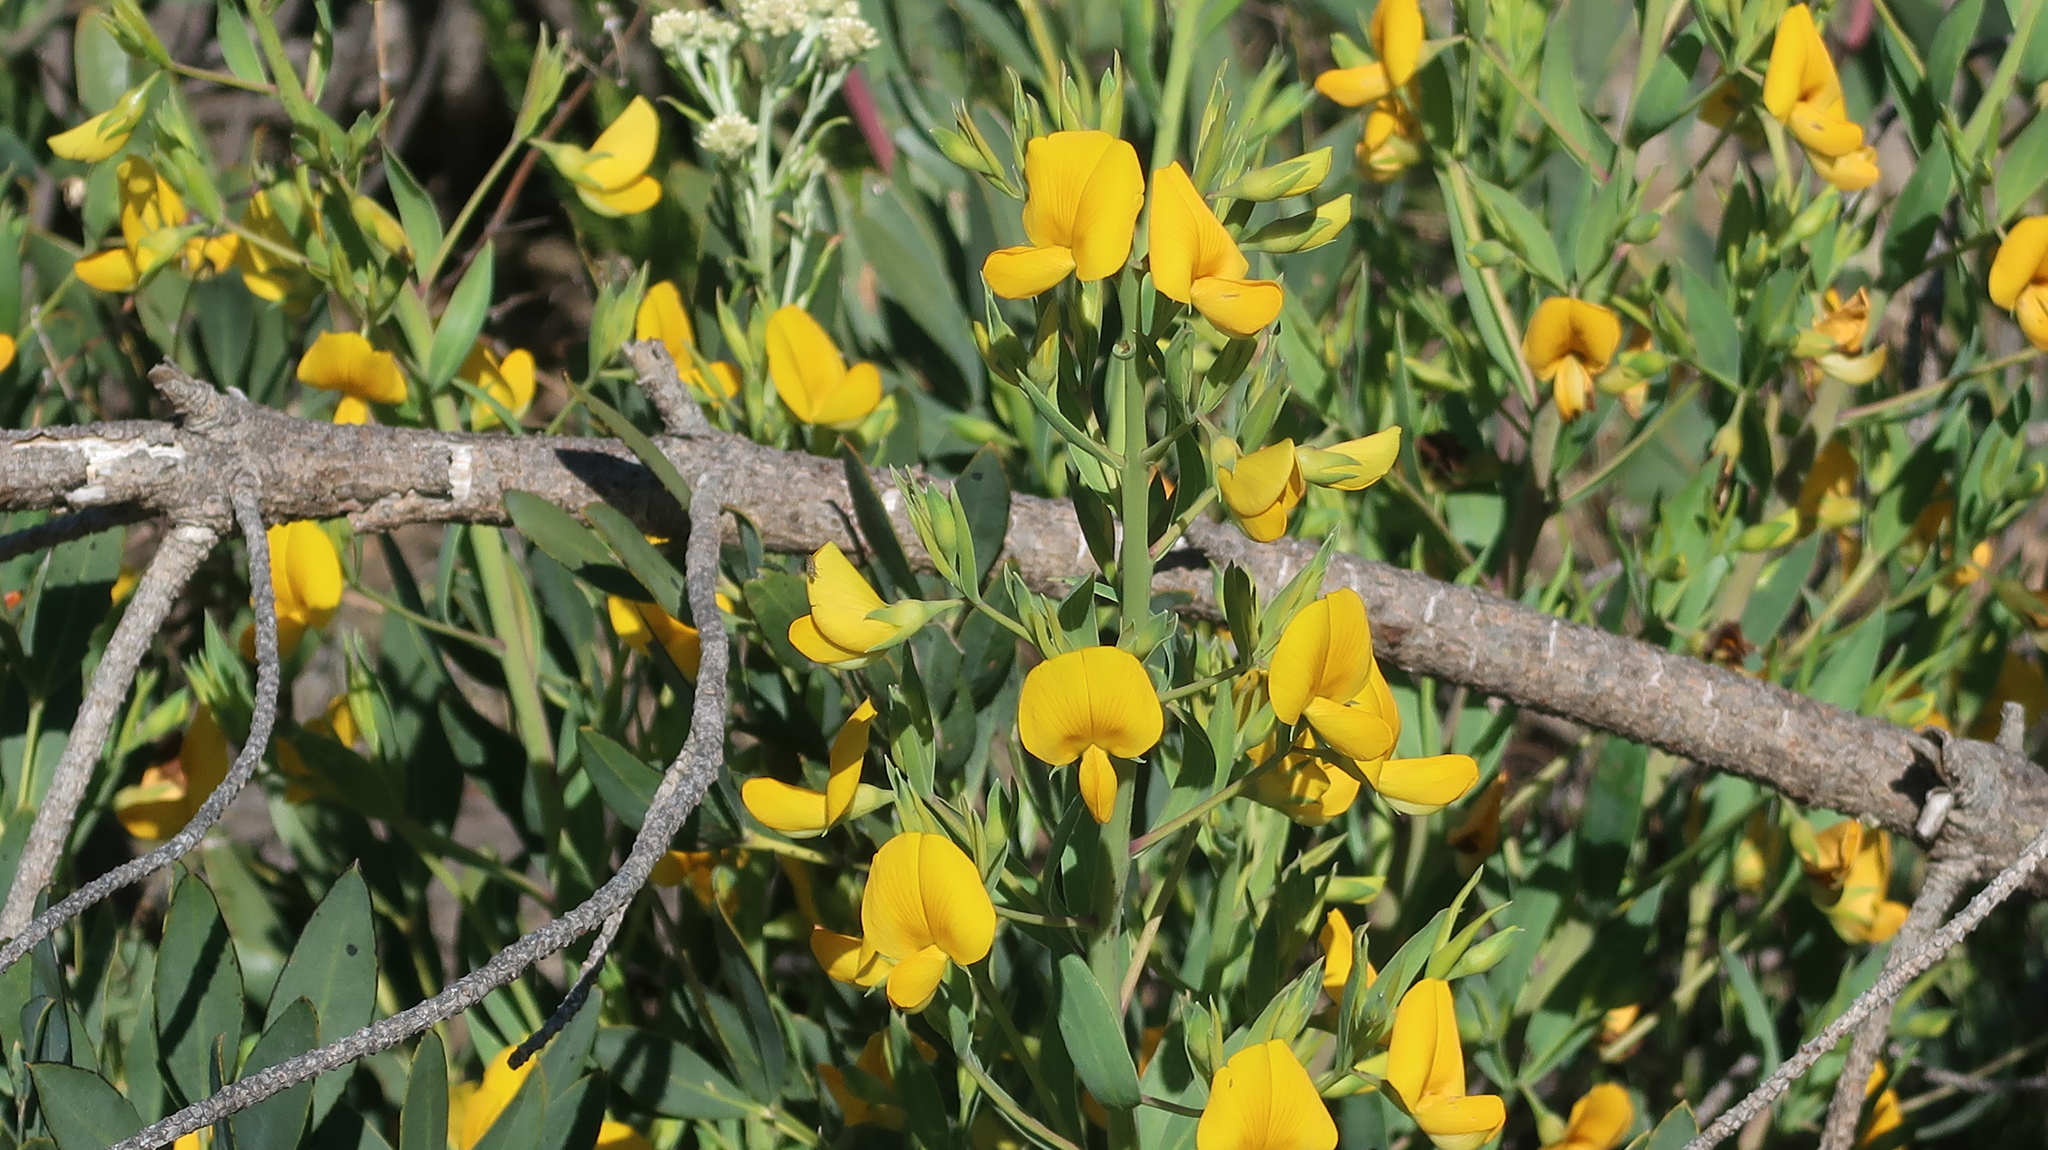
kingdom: Plantae
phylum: Tracheophyta
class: Magnoliopsida
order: Fabales
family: Fabaceae
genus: Rafnia
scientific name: Rafnia racemosa
